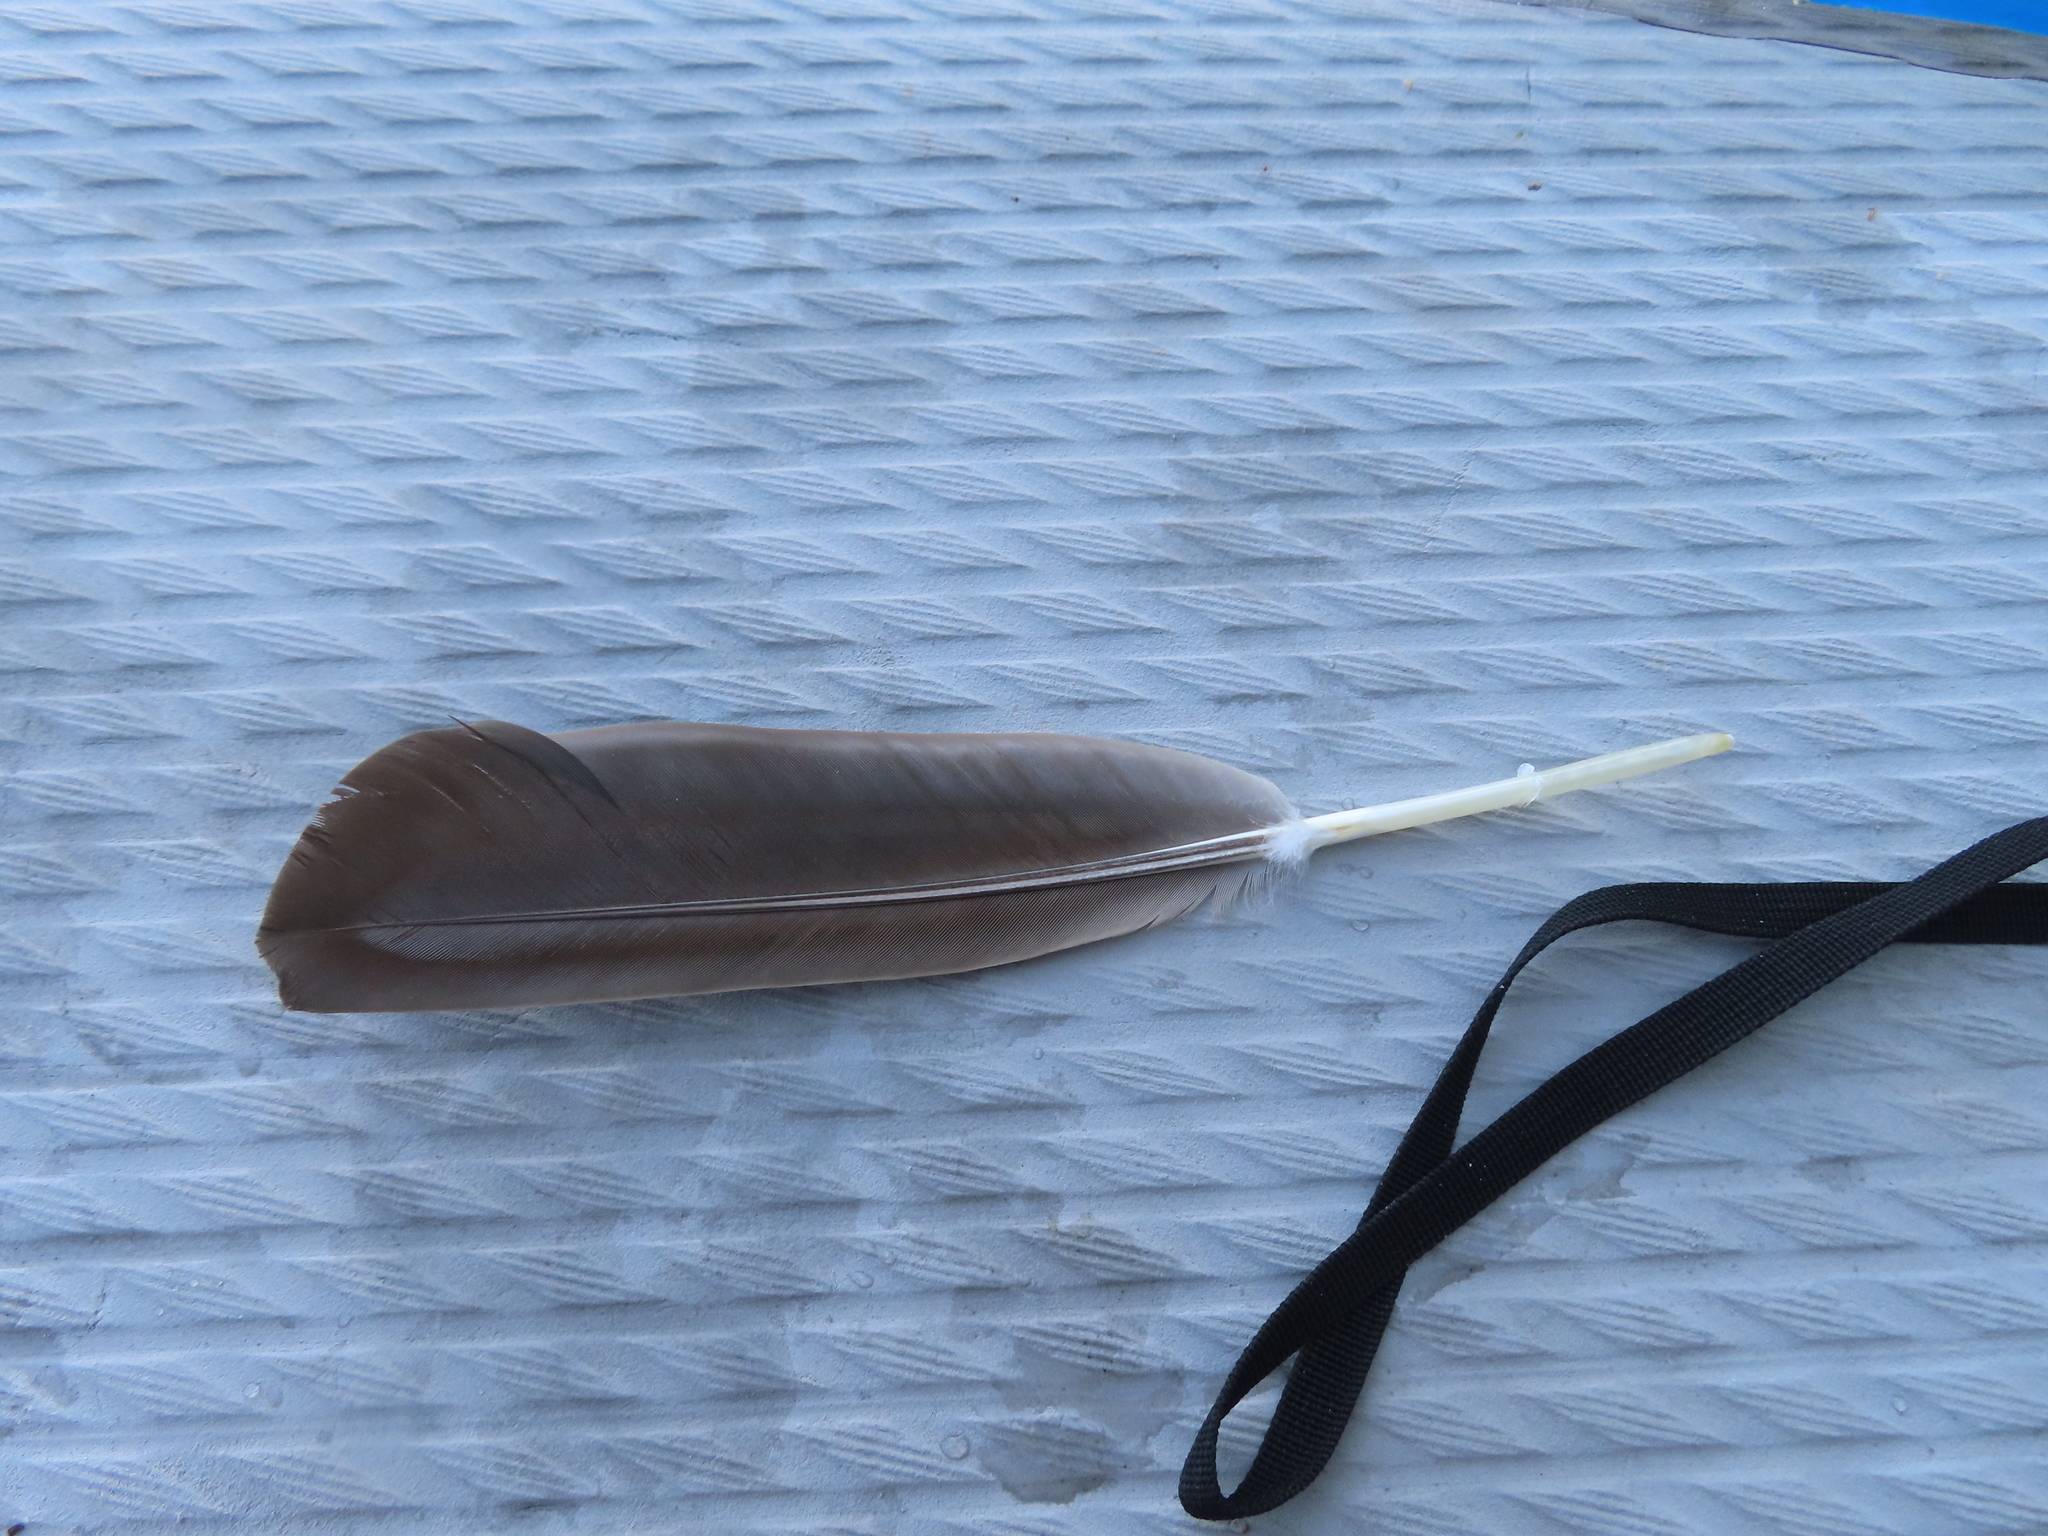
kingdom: Animalia
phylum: Chordata
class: Aves
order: Anseriformes
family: Anatidae
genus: Branta
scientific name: Branta canadensis
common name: Canada goose
